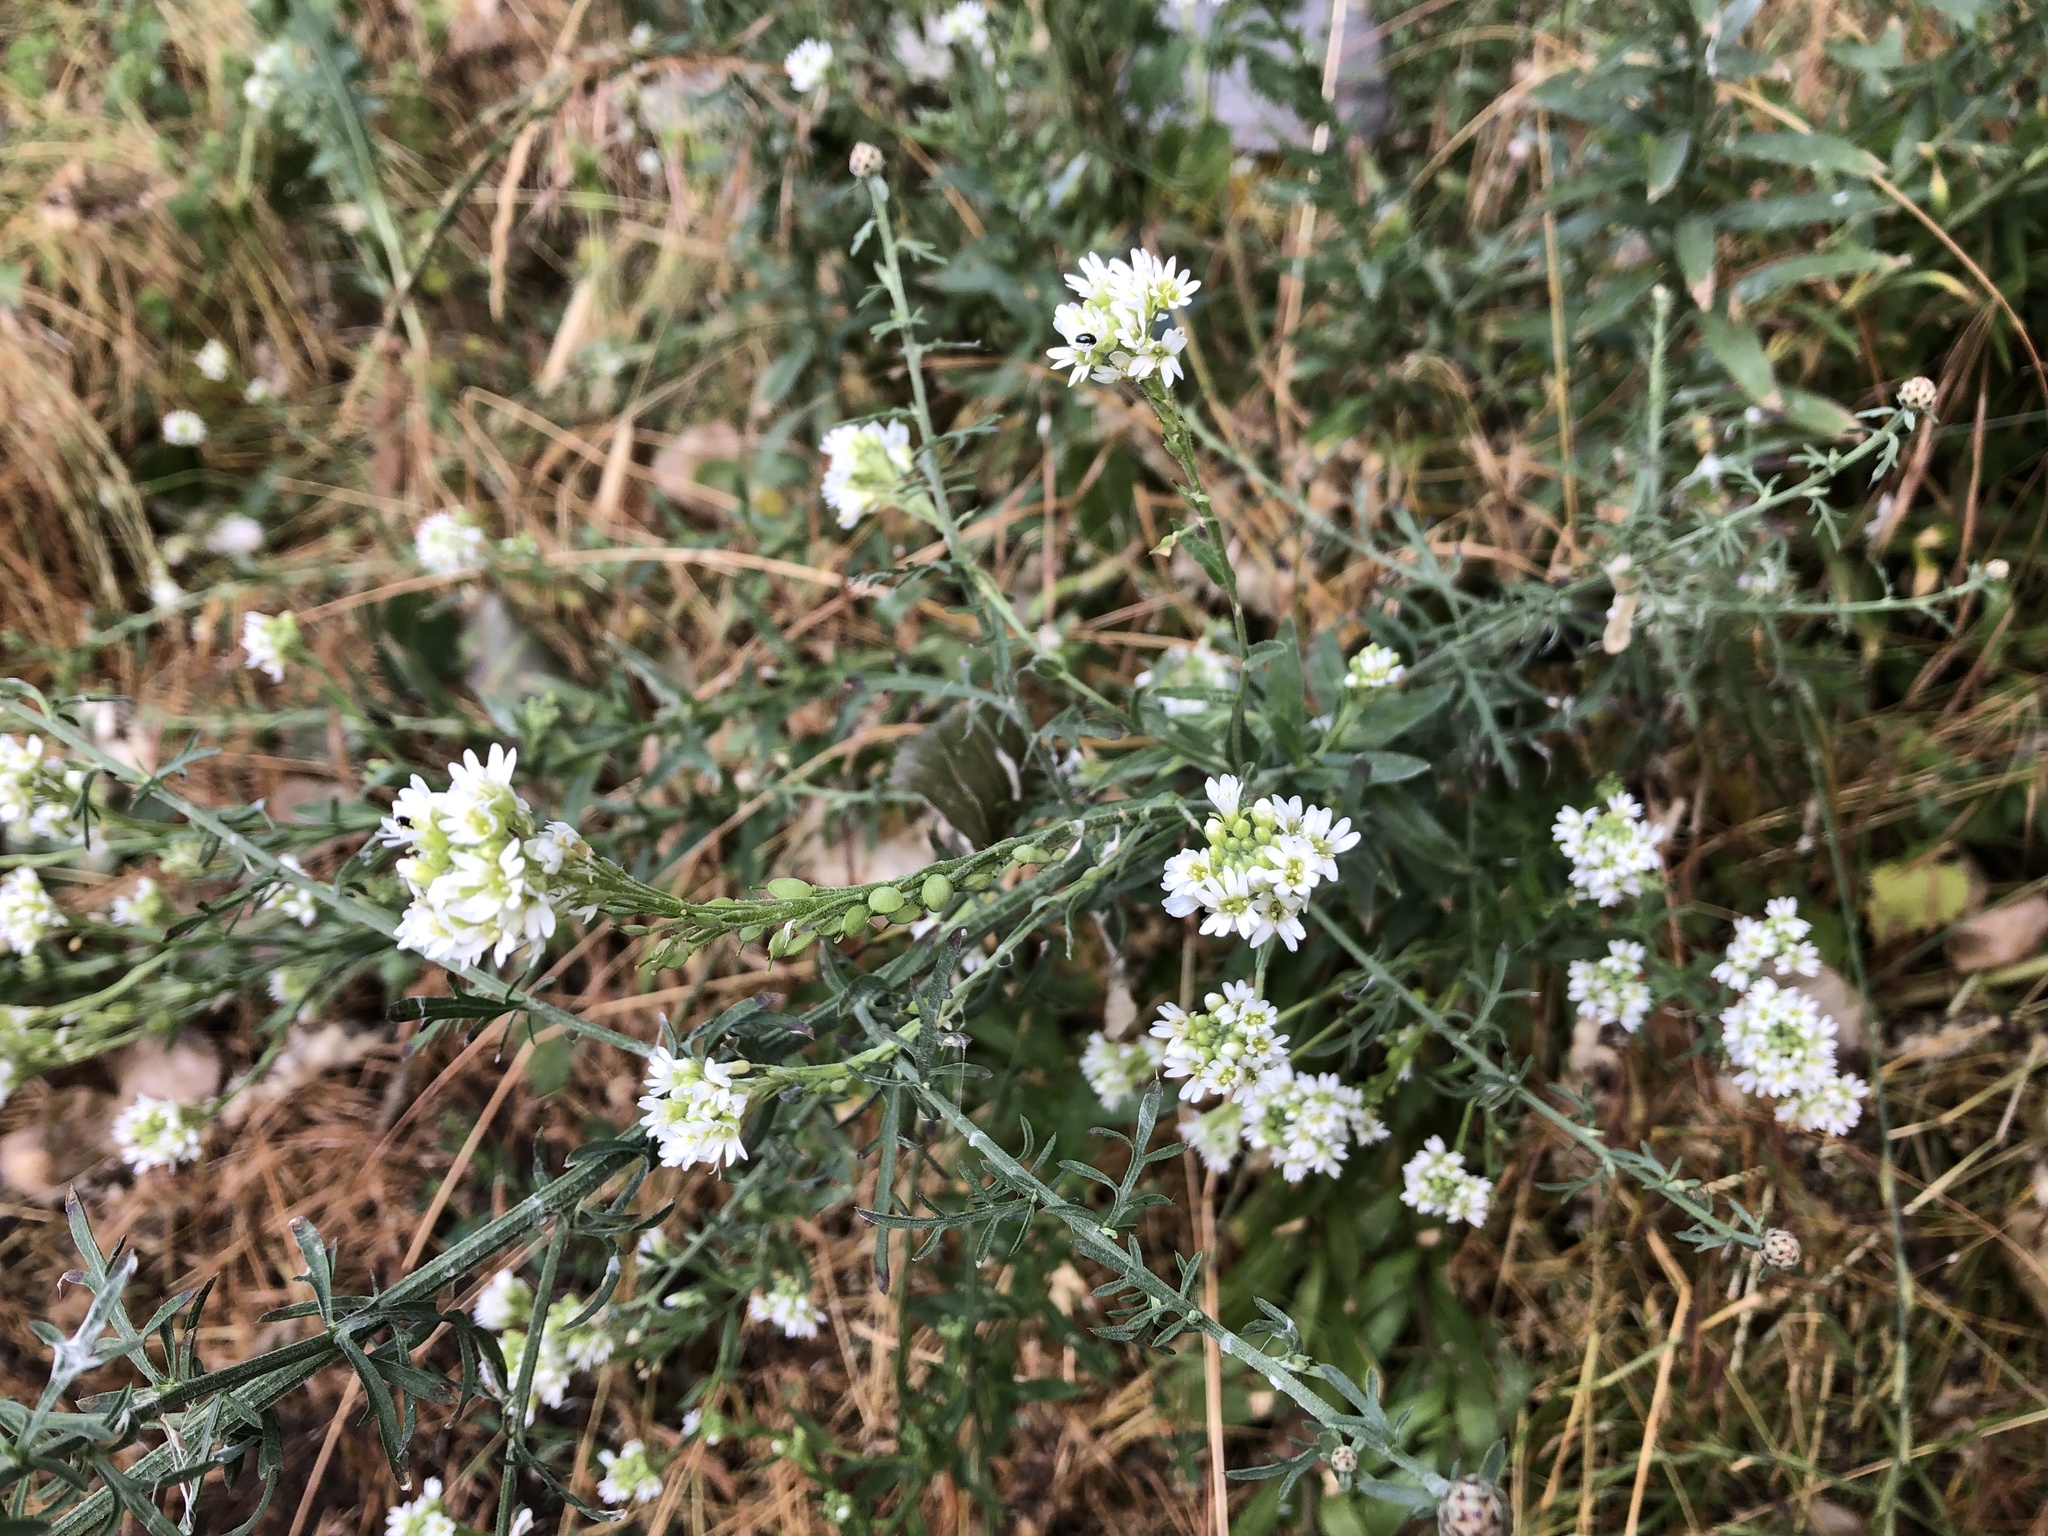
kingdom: Plantae
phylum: Tracheophyta
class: Magnoliopsida
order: Brassicales
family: Brassicaceae
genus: Berteroa
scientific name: Berteroa incana
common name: Hoary alison
